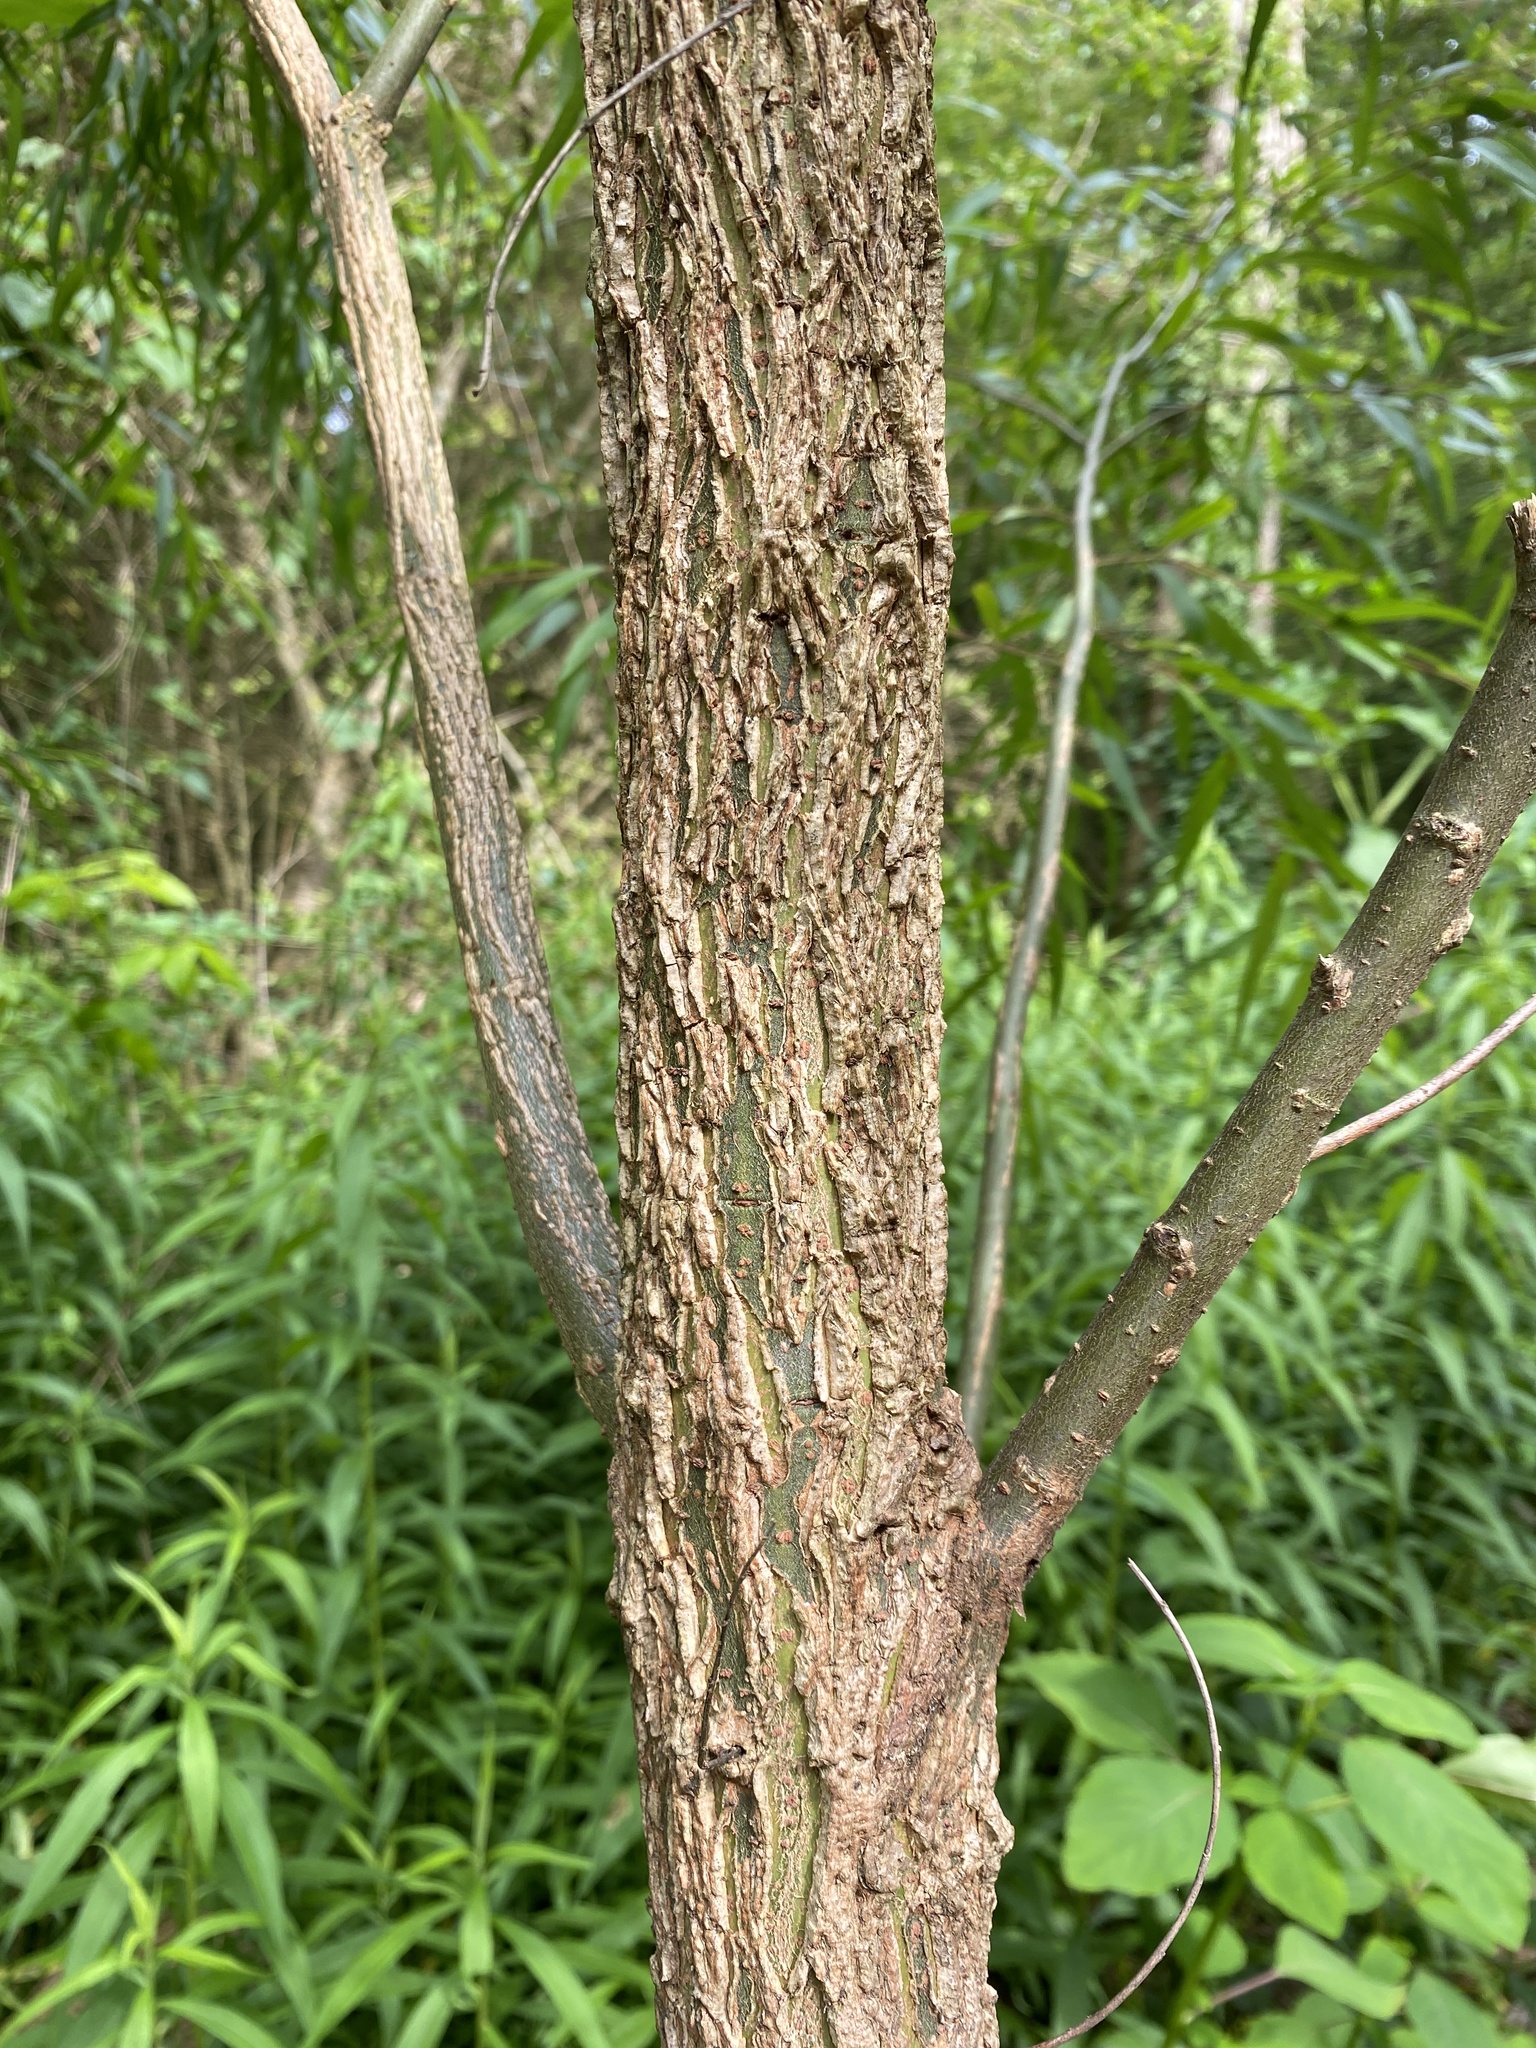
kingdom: Plantae
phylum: Tracheophyta
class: Magnoliopsida
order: Malpighiales
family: Salicaceae
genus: Salix
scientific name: Salix nigra
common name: Black willow
